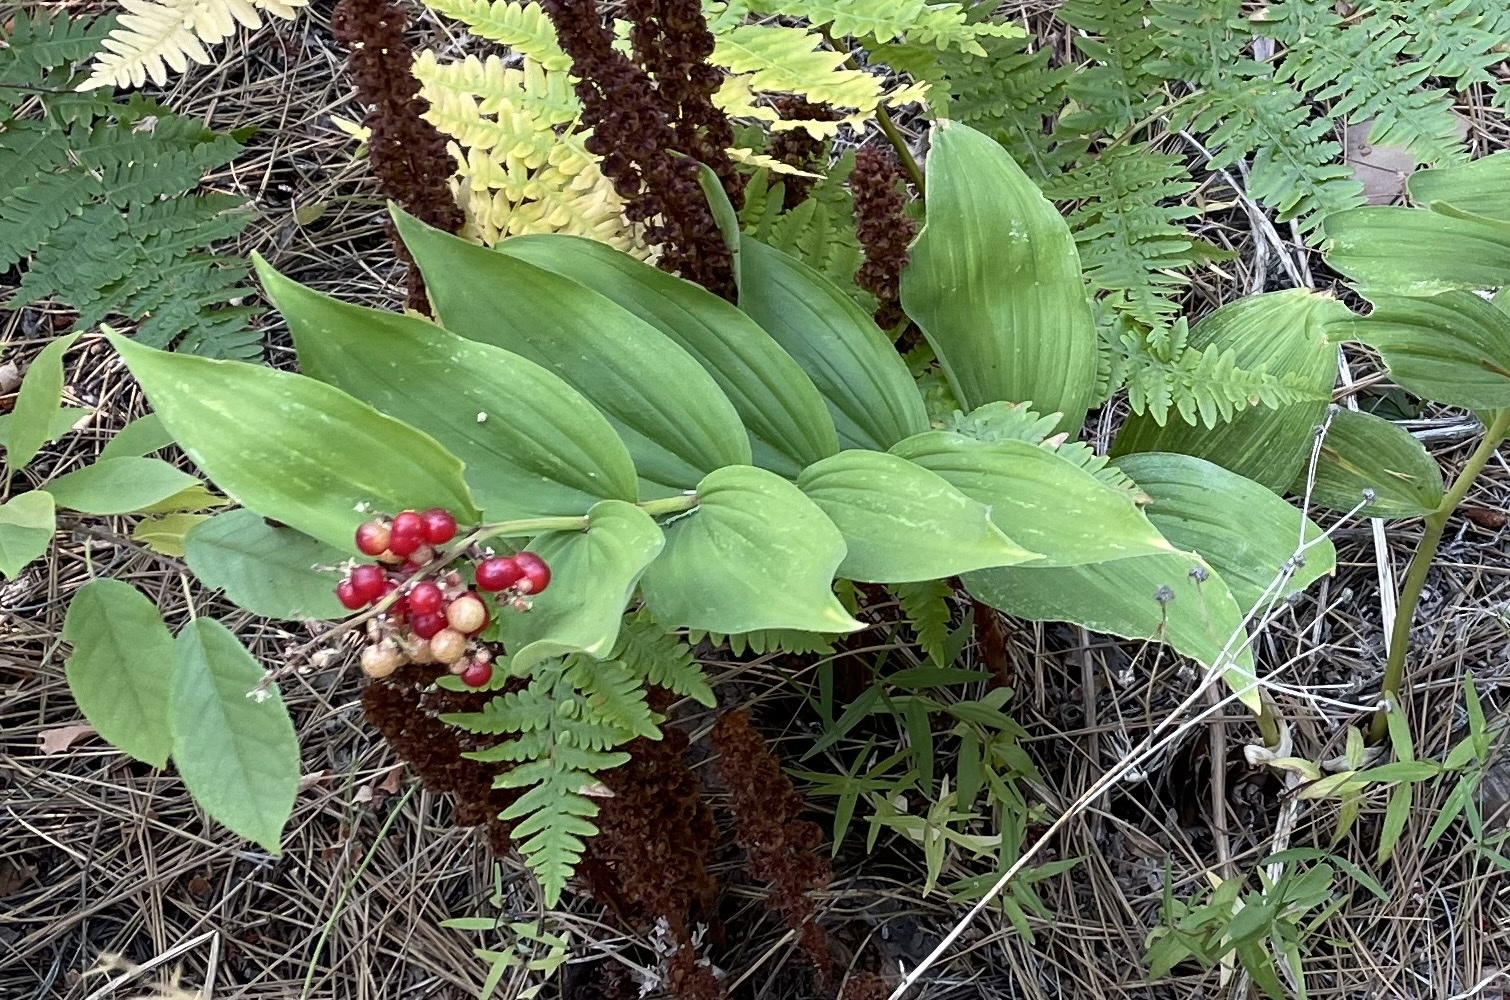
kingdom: Plantae
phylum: Tracheophyta
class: Liliopsida
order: Asparagales
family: Asparagaceae
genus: Maianthemum
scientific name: Maianthemum racemosum
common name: False spikenard
